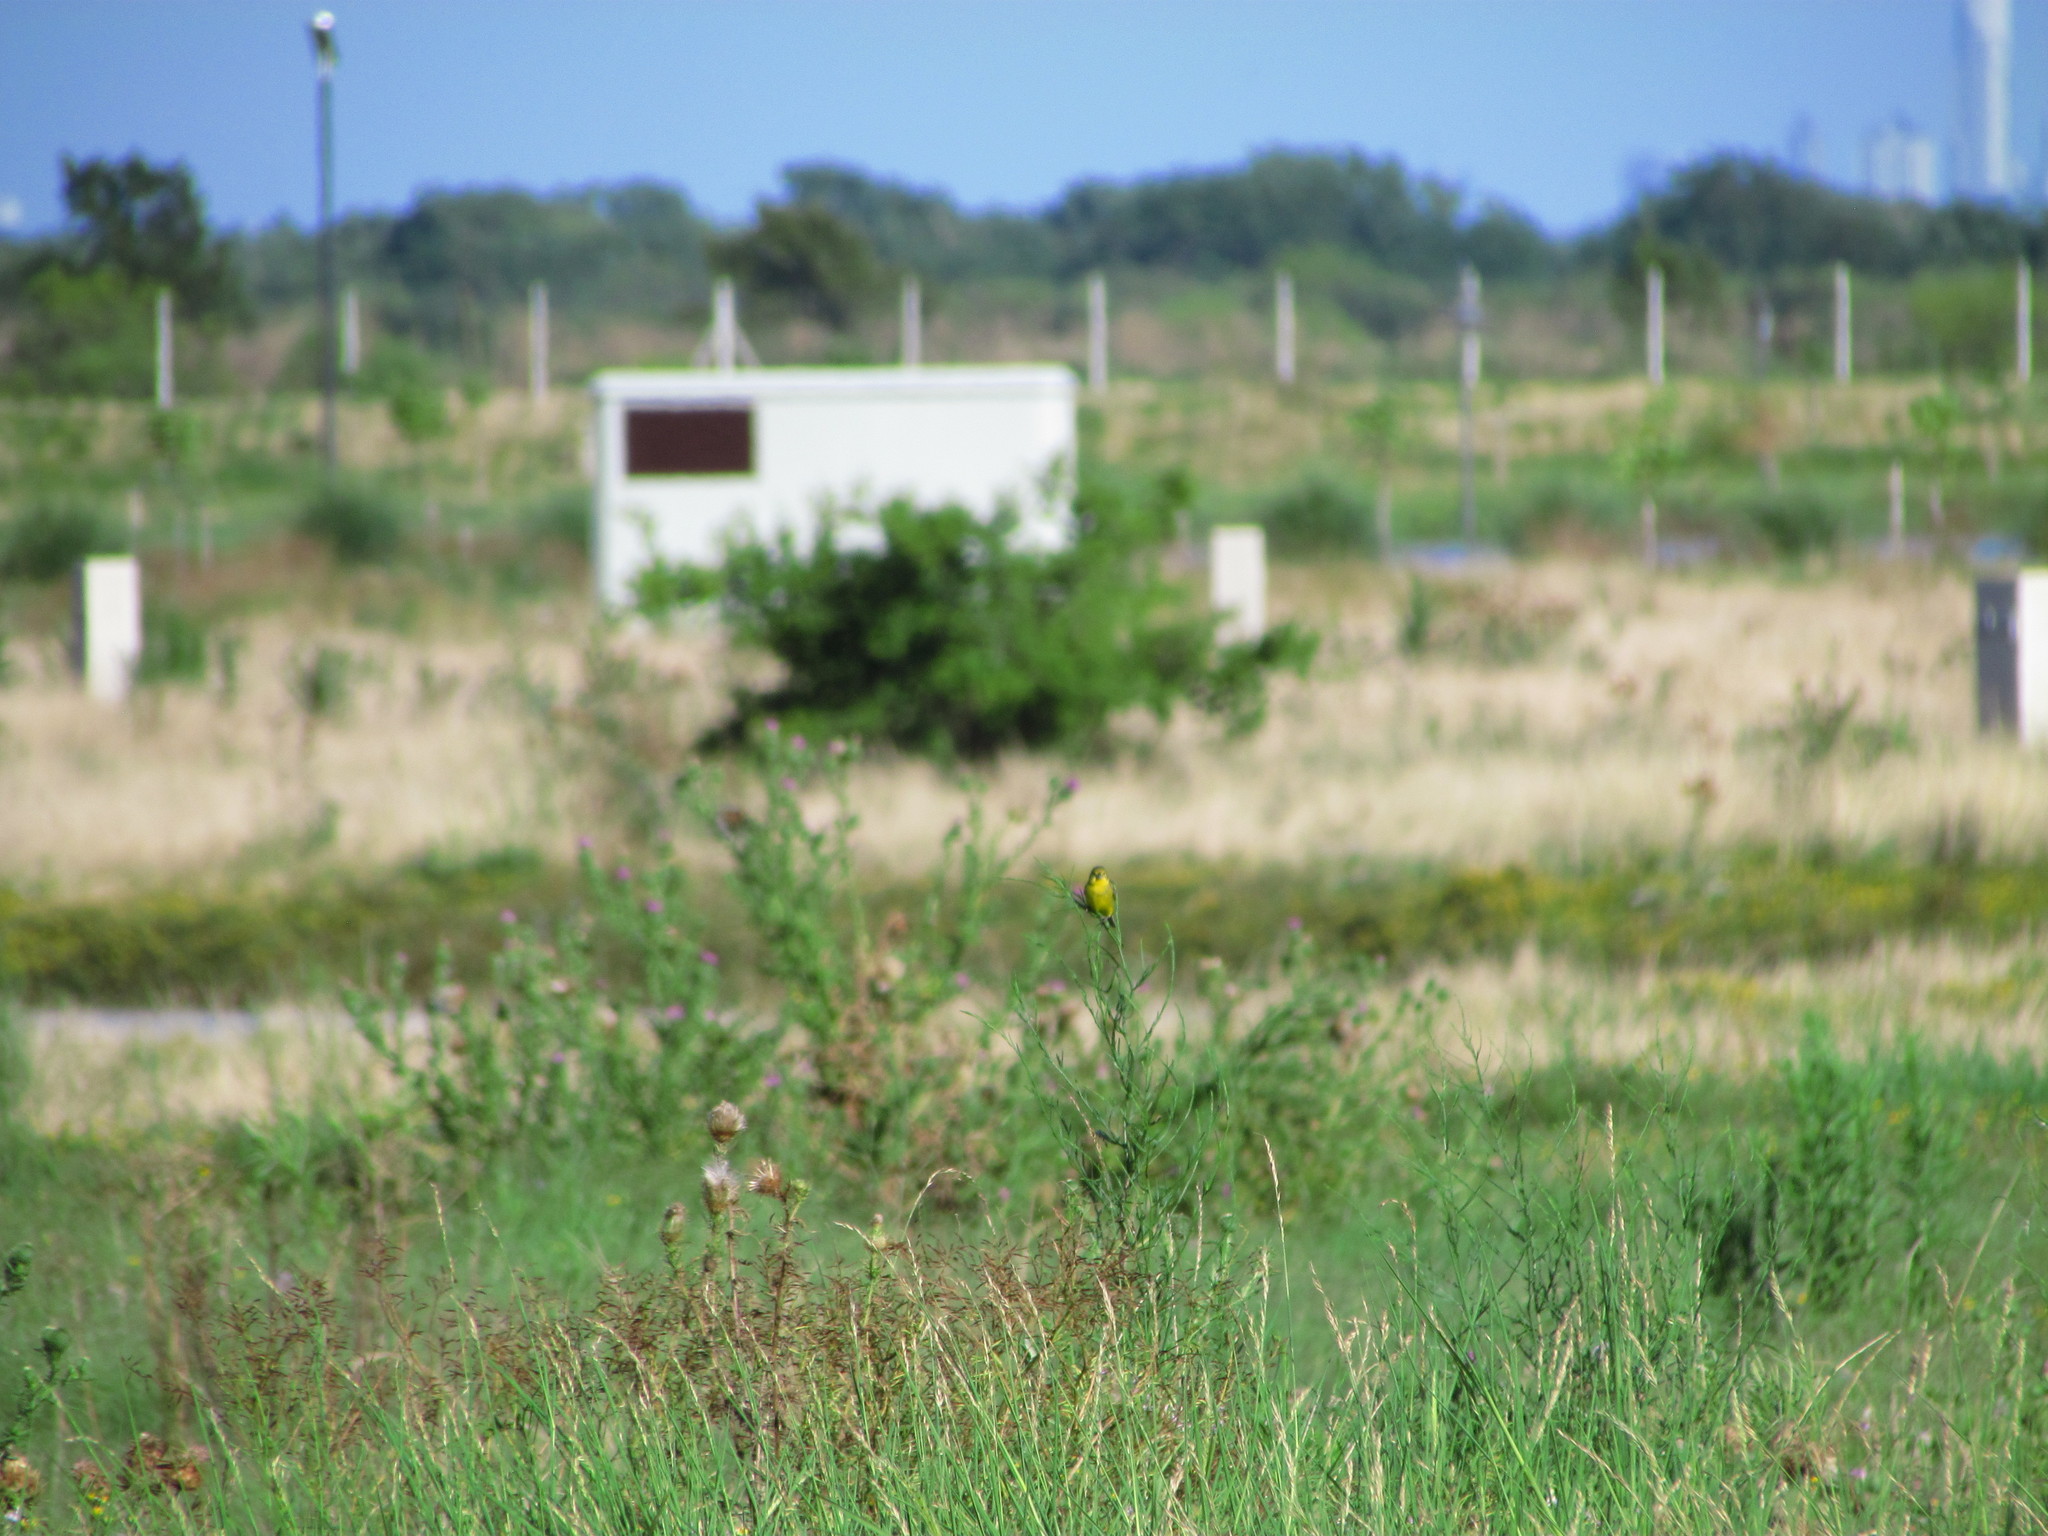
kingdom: Animalia
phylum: Chordata
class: Aves
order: Passeriformes
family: Thraupidae
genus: Sicalis
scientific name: Sicalis luteola
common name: Grassland yellow-finch
